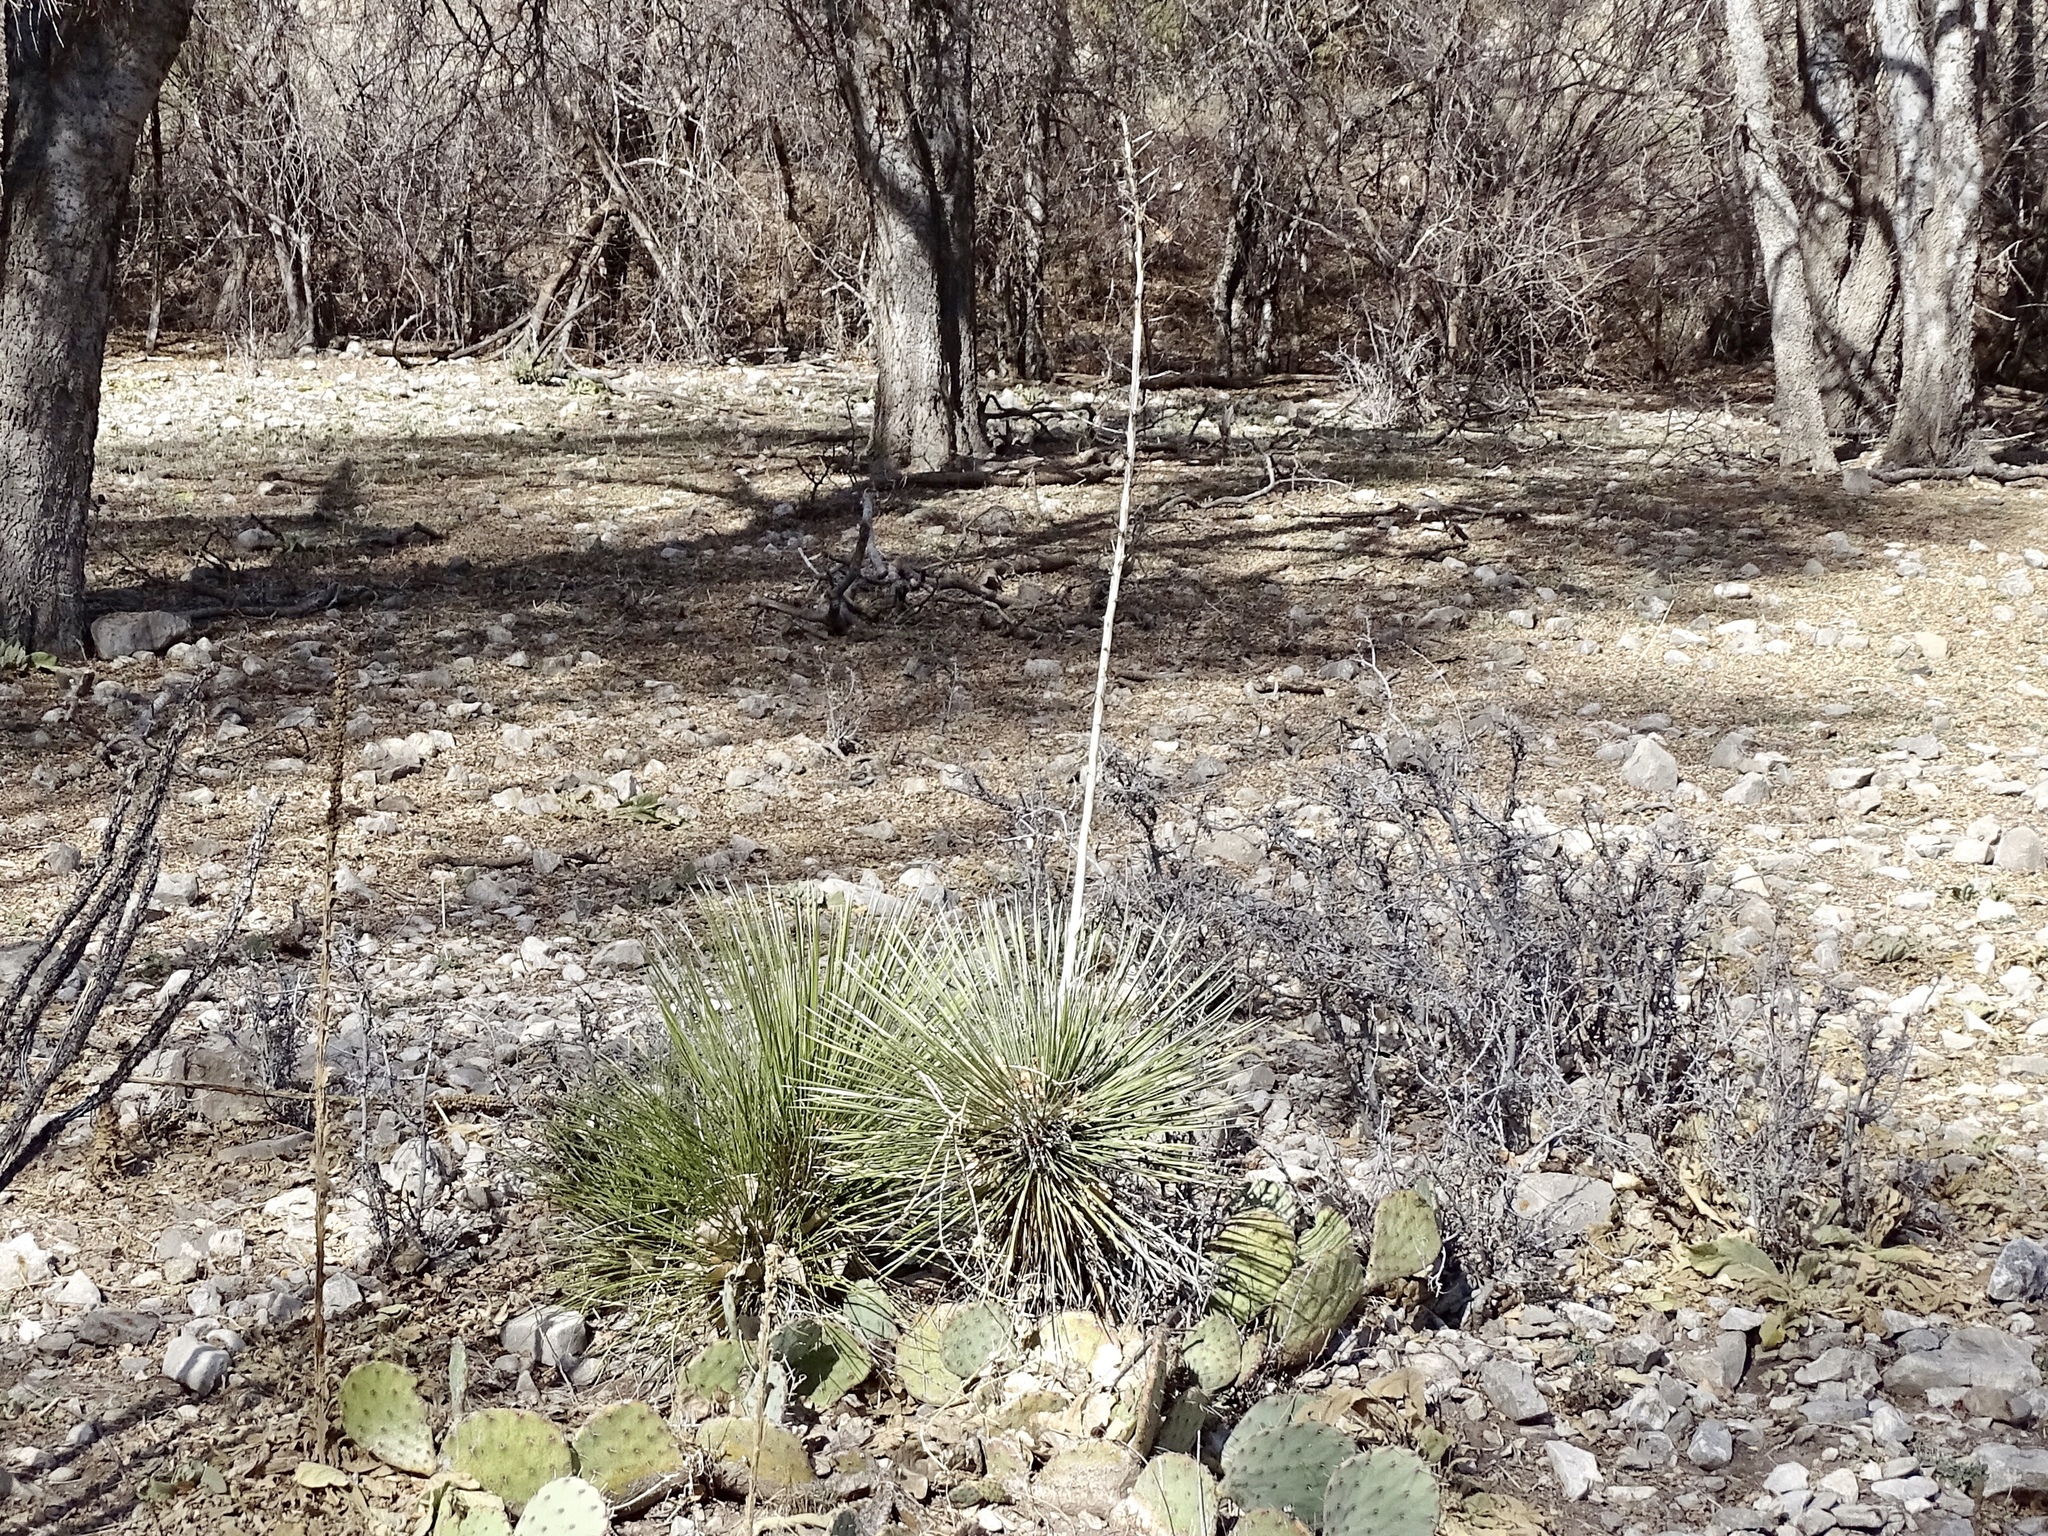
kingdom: Plantae
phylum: Tracheophyta
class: Liliopsida
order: Asparagales
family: Asparagaceae
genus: Yucca
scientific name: Yucca elata
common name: Palmella
